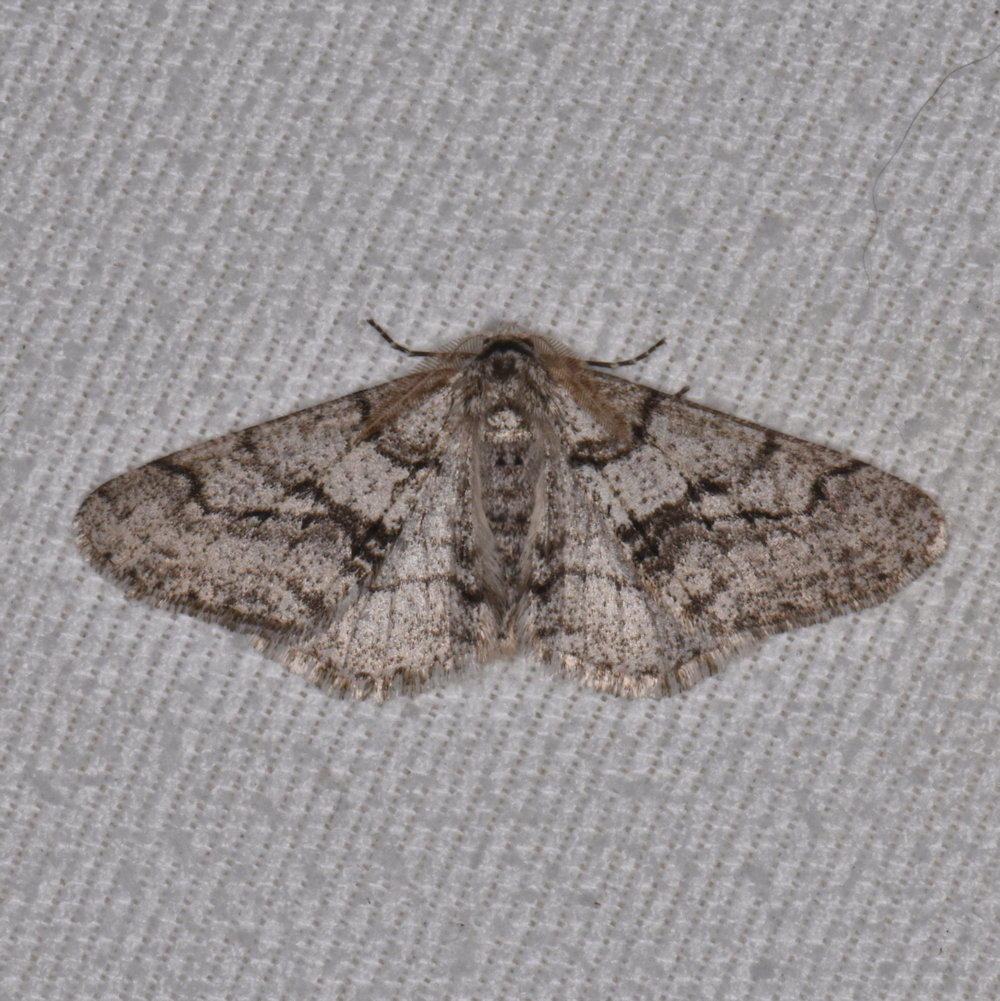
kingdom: Animalia
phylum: Arthropoda
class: Insecta
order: Lepidoptera
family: Geometridae
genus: Phigalia
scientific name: Phigalia titea
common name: Spiny looper
